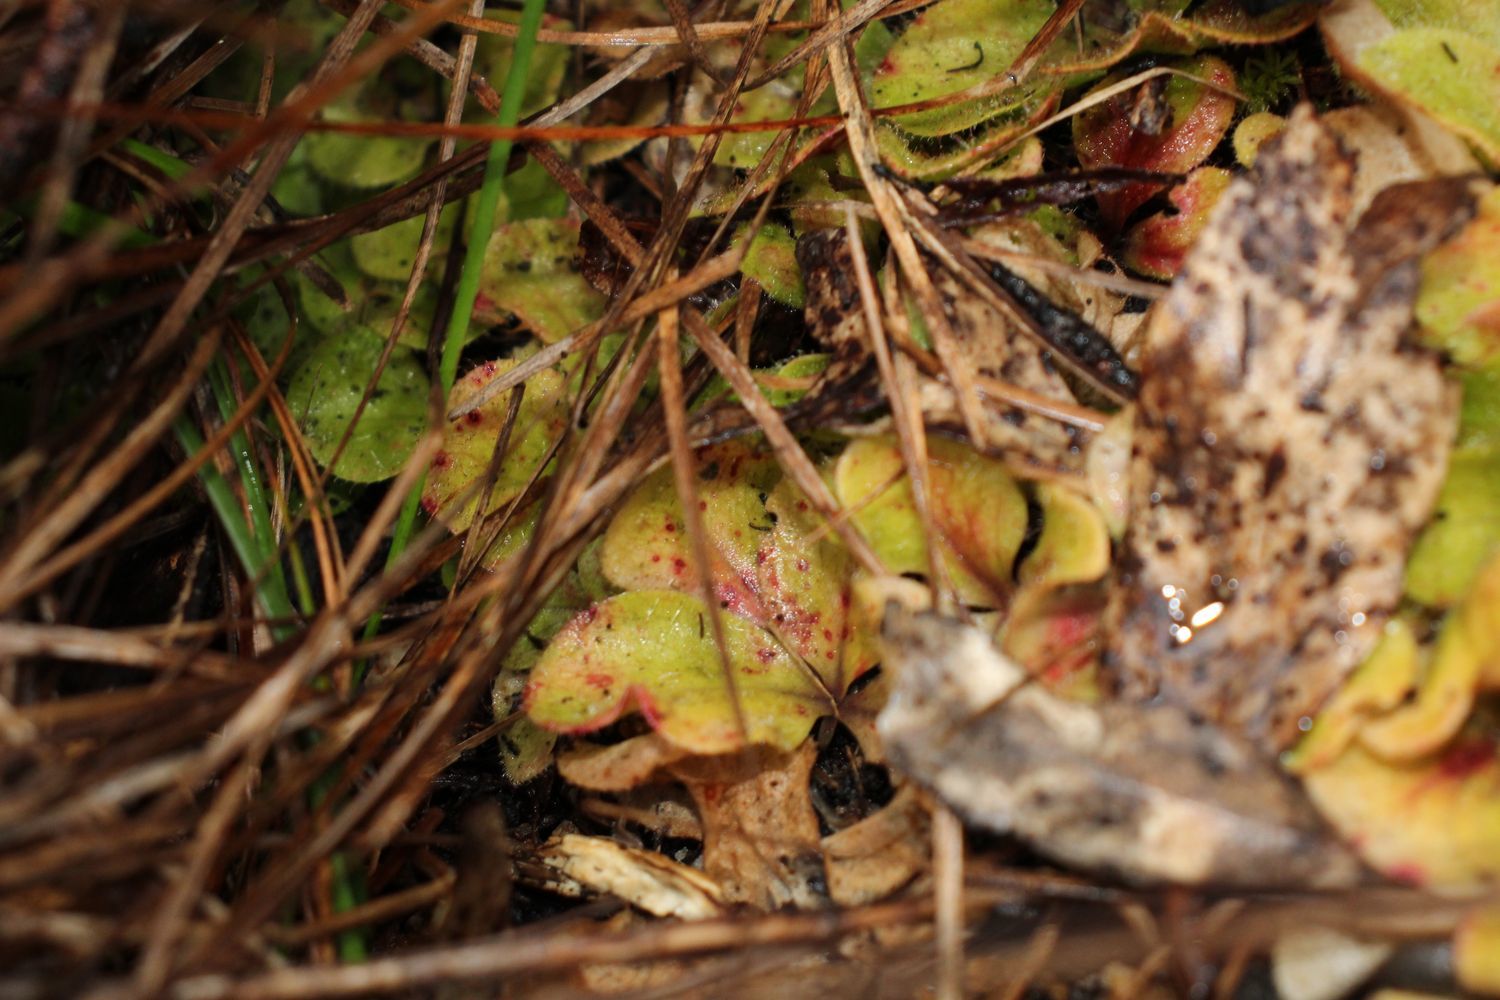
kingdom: Plantae
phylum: Tracheophyta
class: Magnoliopsida
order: Caryophyllales
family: Droseraceae
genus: Drosera
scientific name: Drosera erythrorhiza
